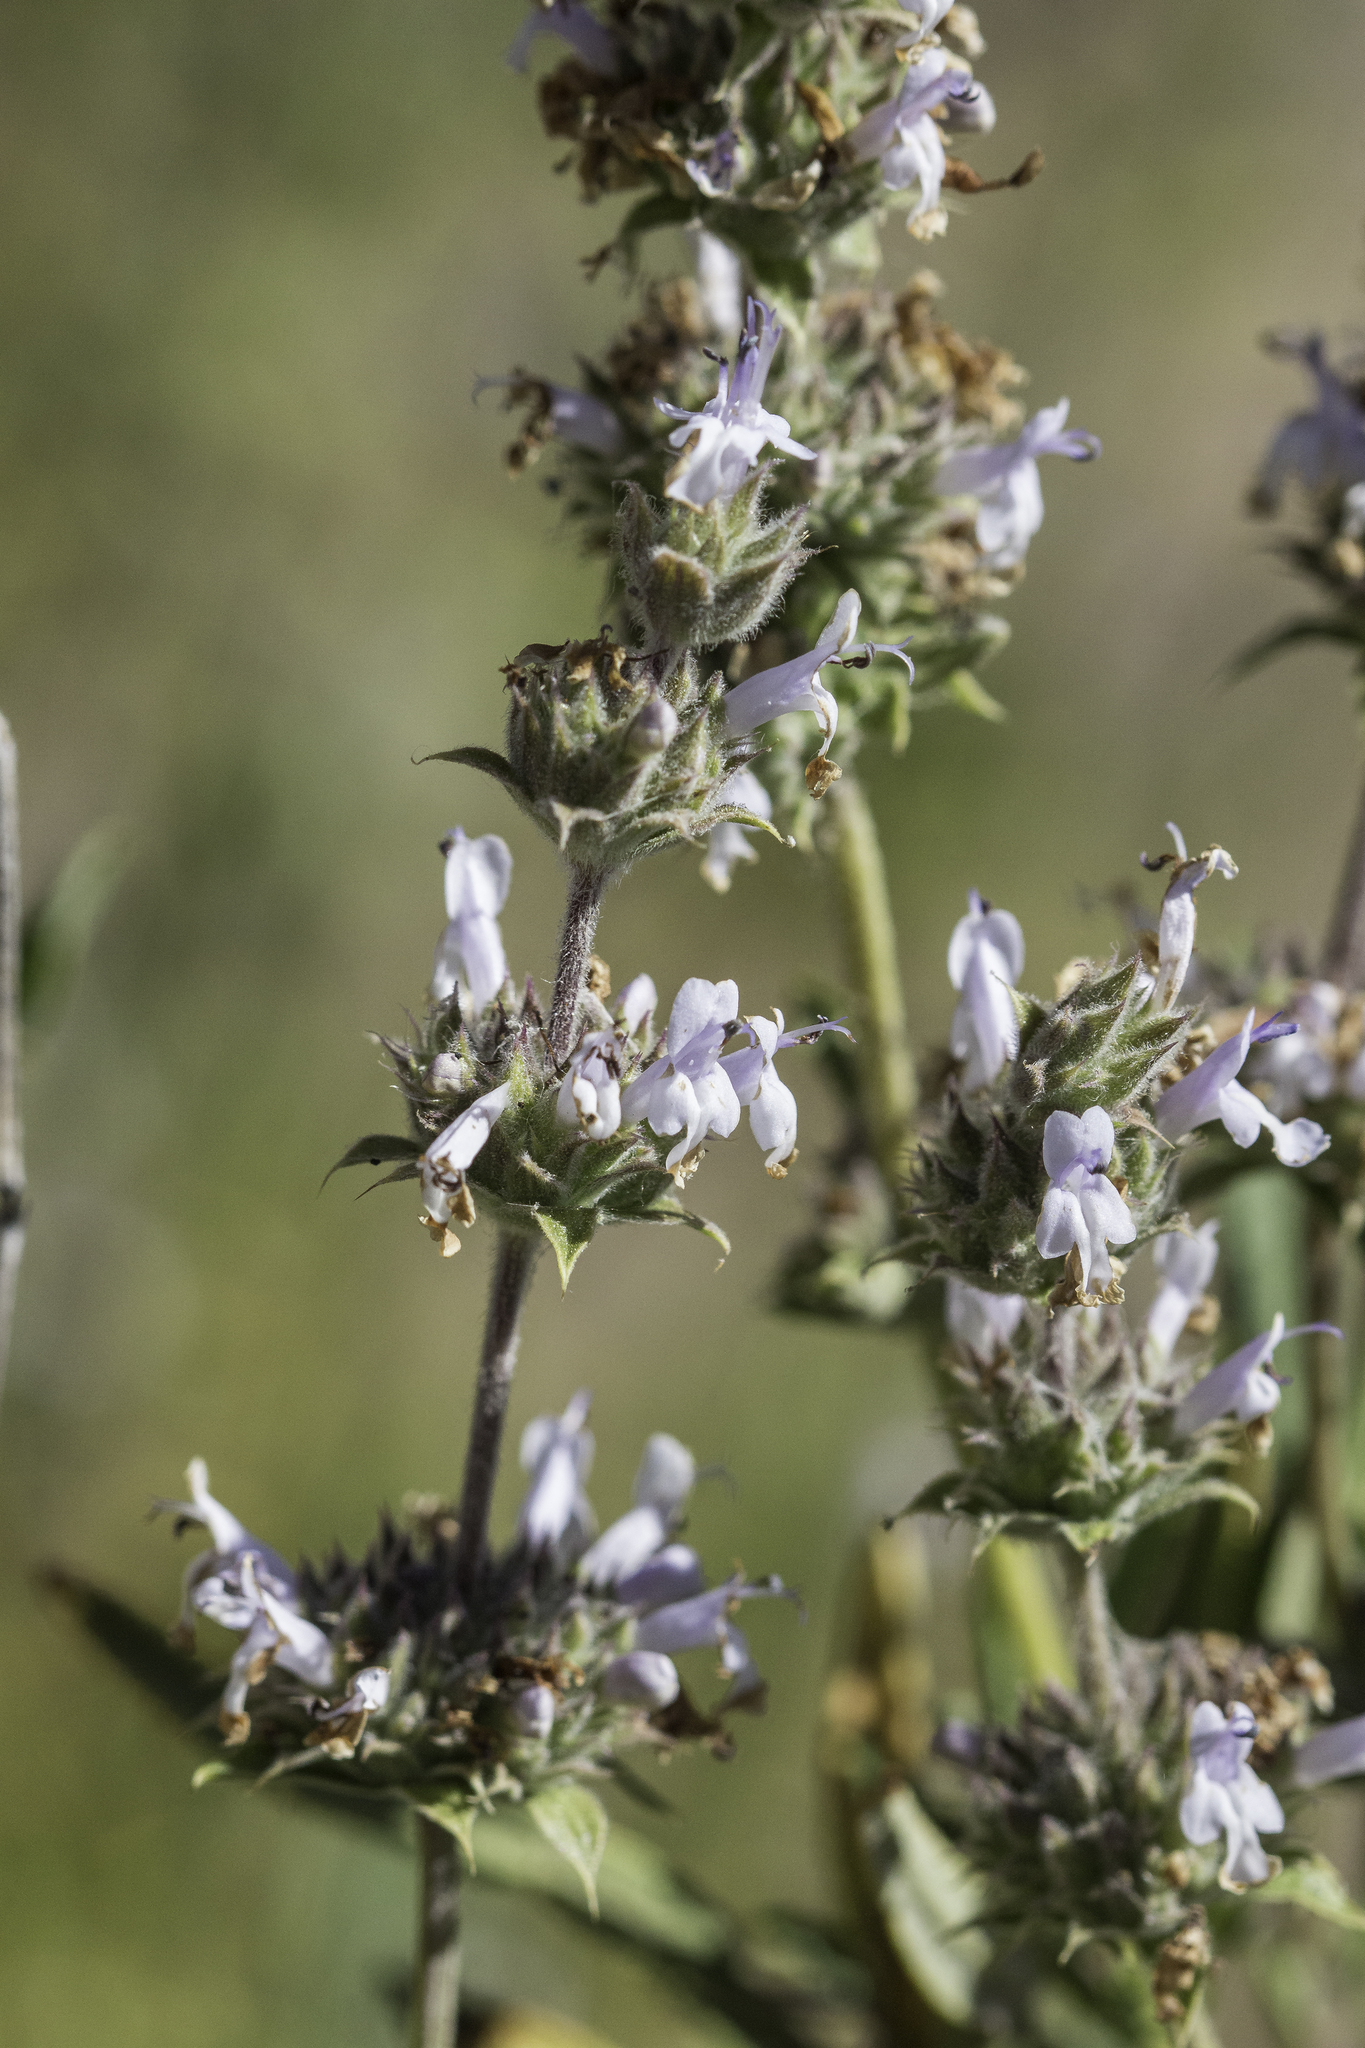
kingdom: Plantae
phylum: Tracheophyta
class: Magnoliopsida
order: Lamiales
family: Lamiaceae
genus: Salvia
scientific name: Salvia mellifera
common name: Black sage
